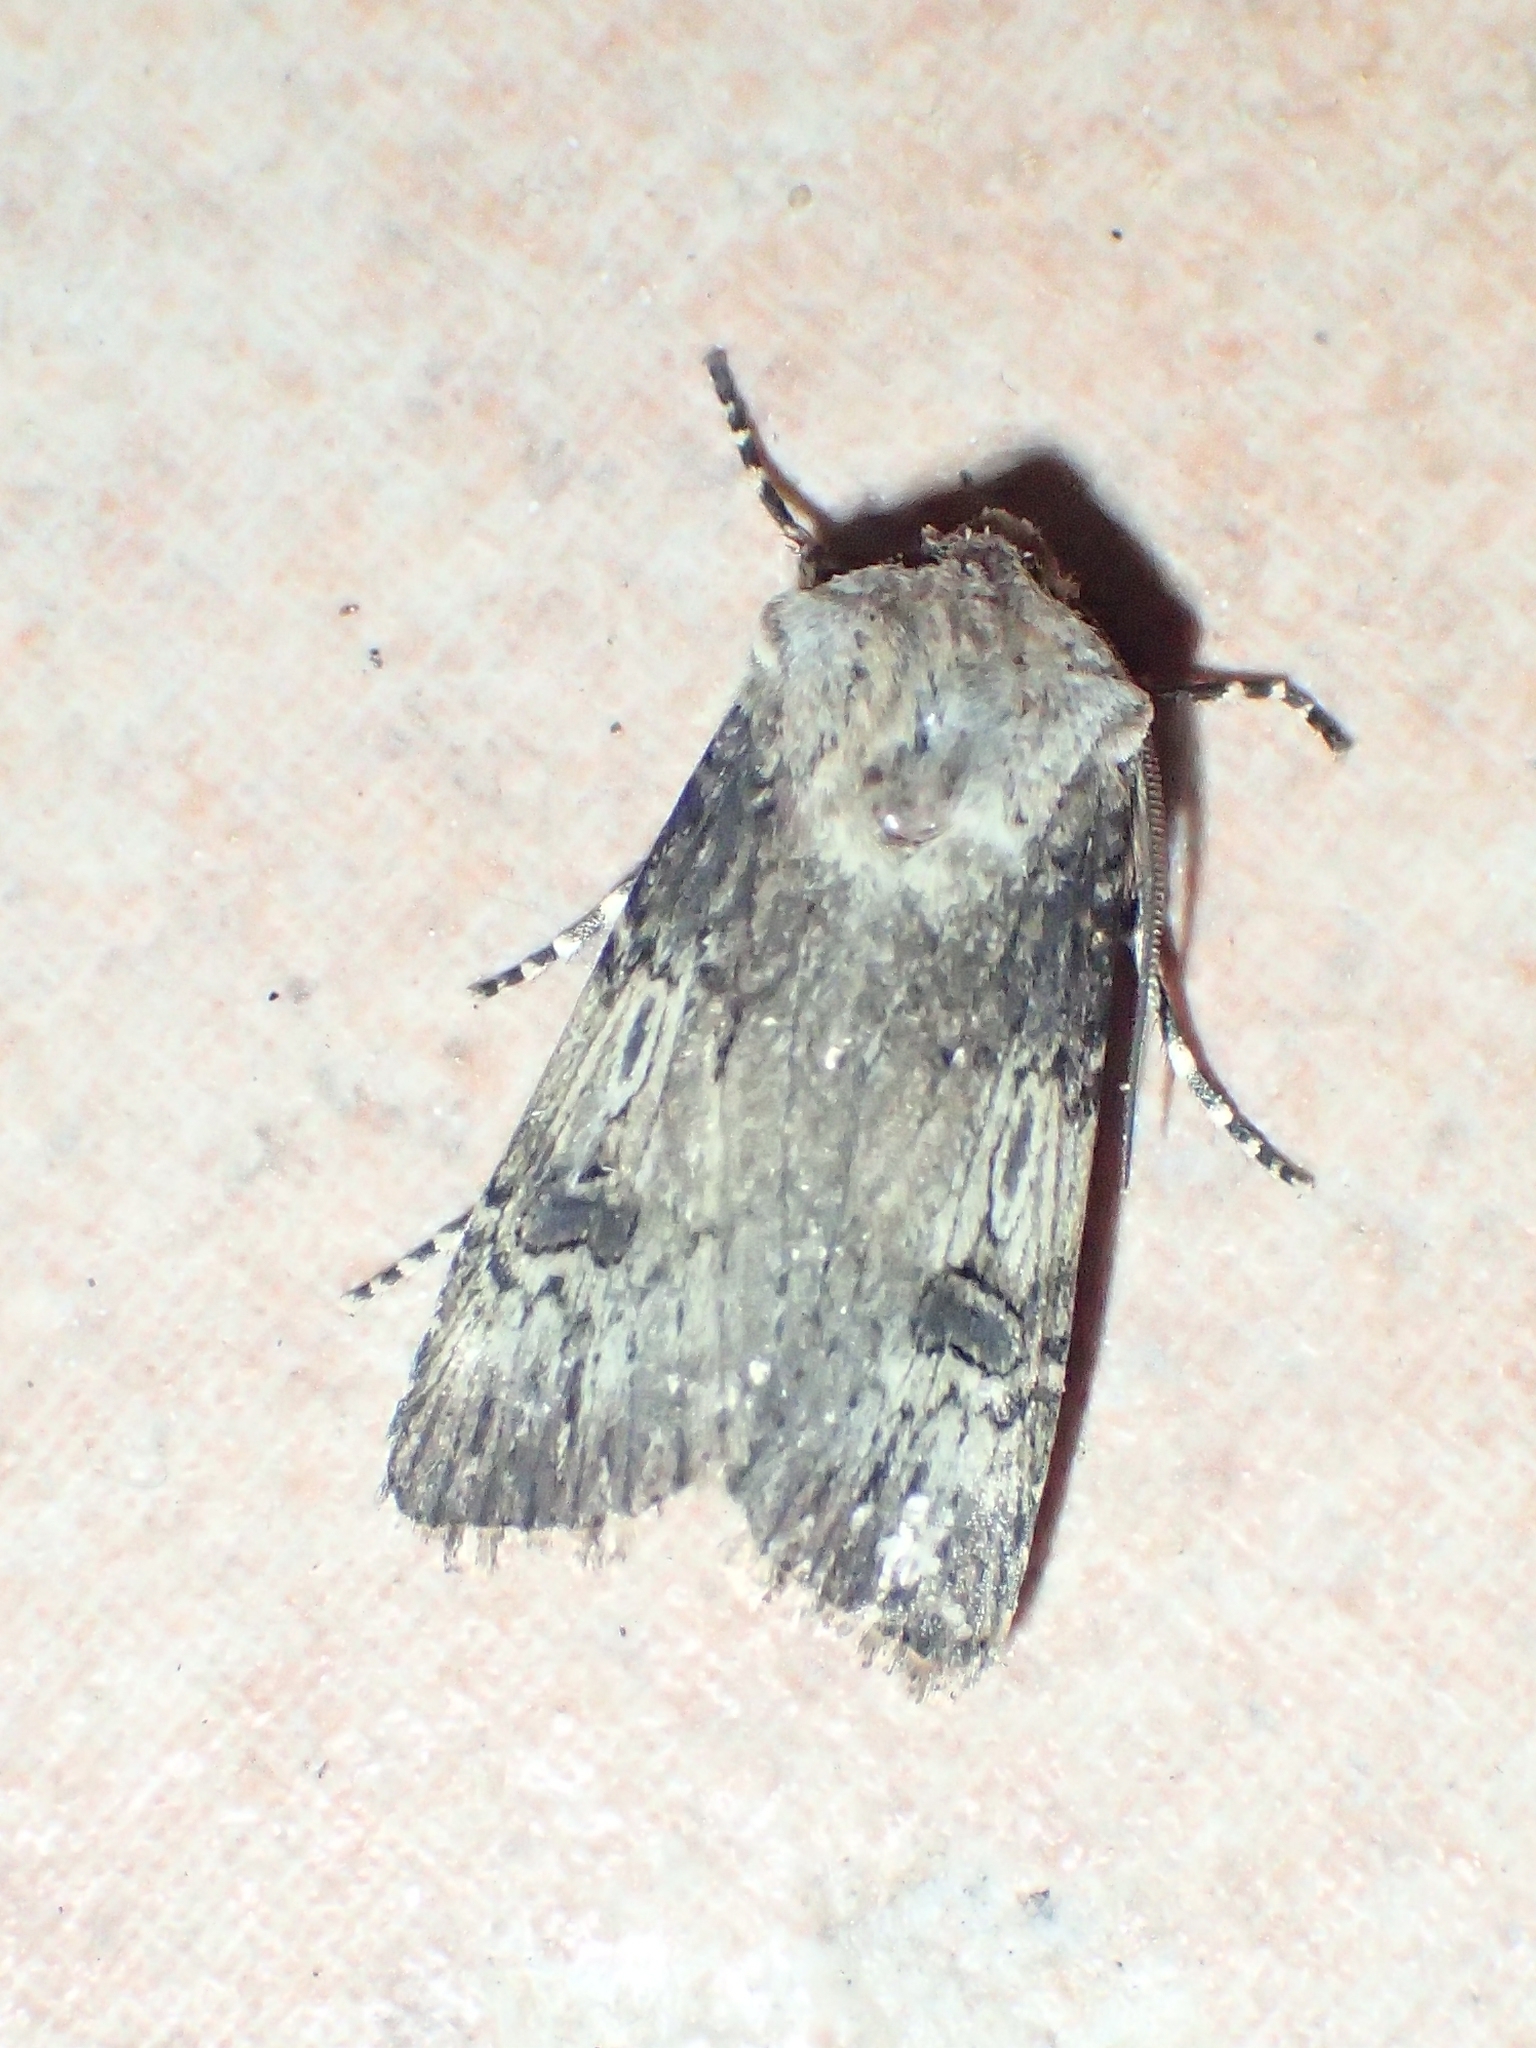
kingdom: Animalia
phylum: Arthropoda
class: Insecta
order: Lepidoptera
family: Noctuidae
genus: Agrotis
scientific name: Agrotis puta
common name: Shuttle-shaped dart
